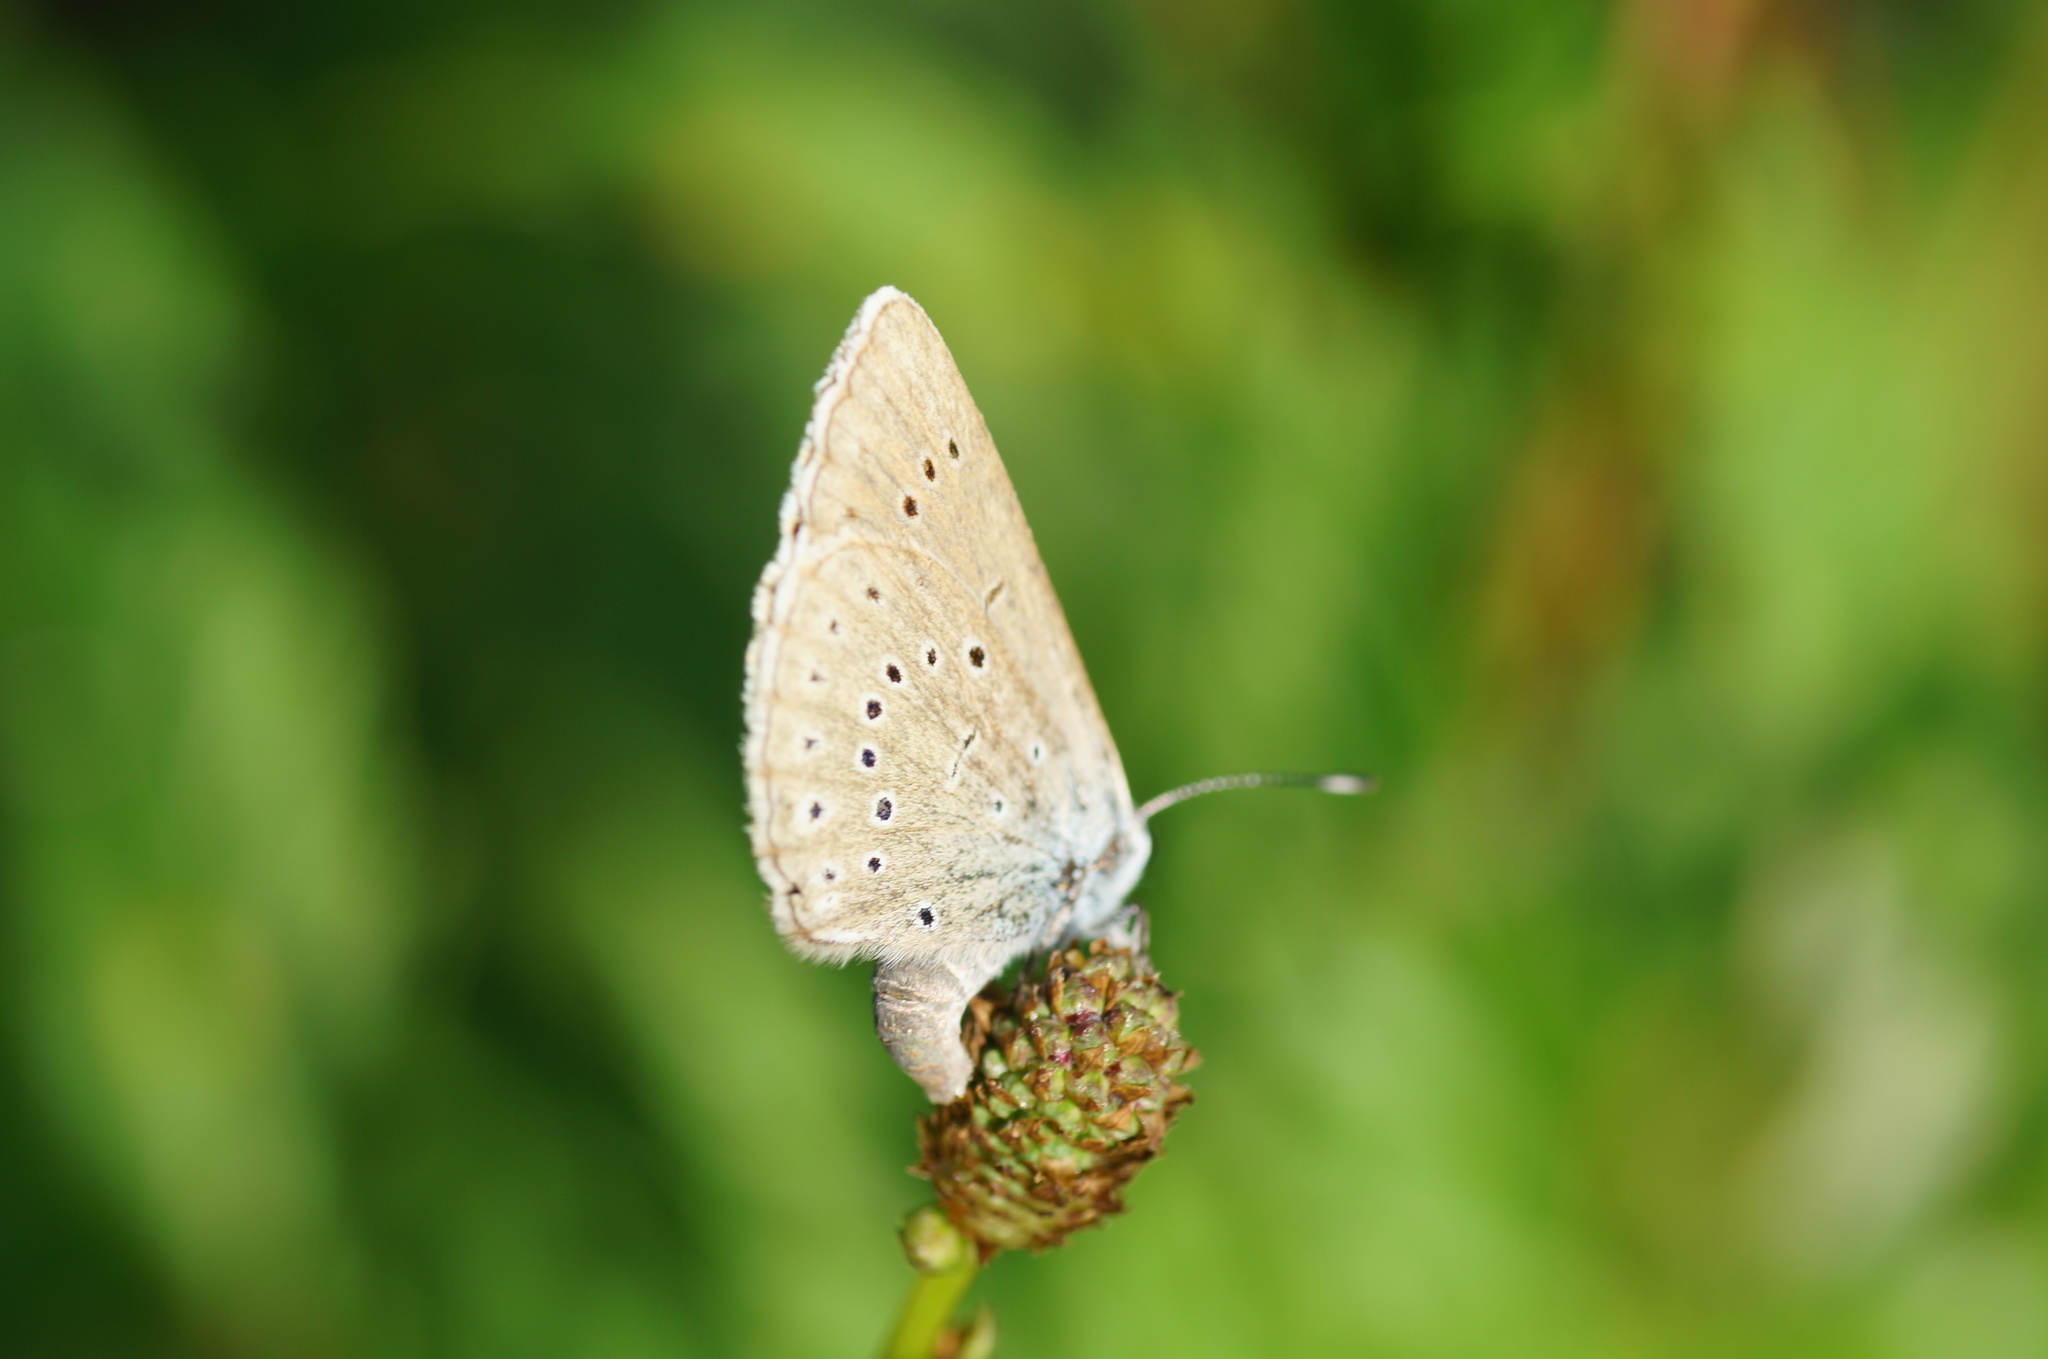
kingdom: Animalia
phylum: Arthropoda
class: Insecta
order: Lepidoptera
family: Lycaenidae
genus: Phengaris
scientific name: Phengaris teleius
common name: Scarce large blue
